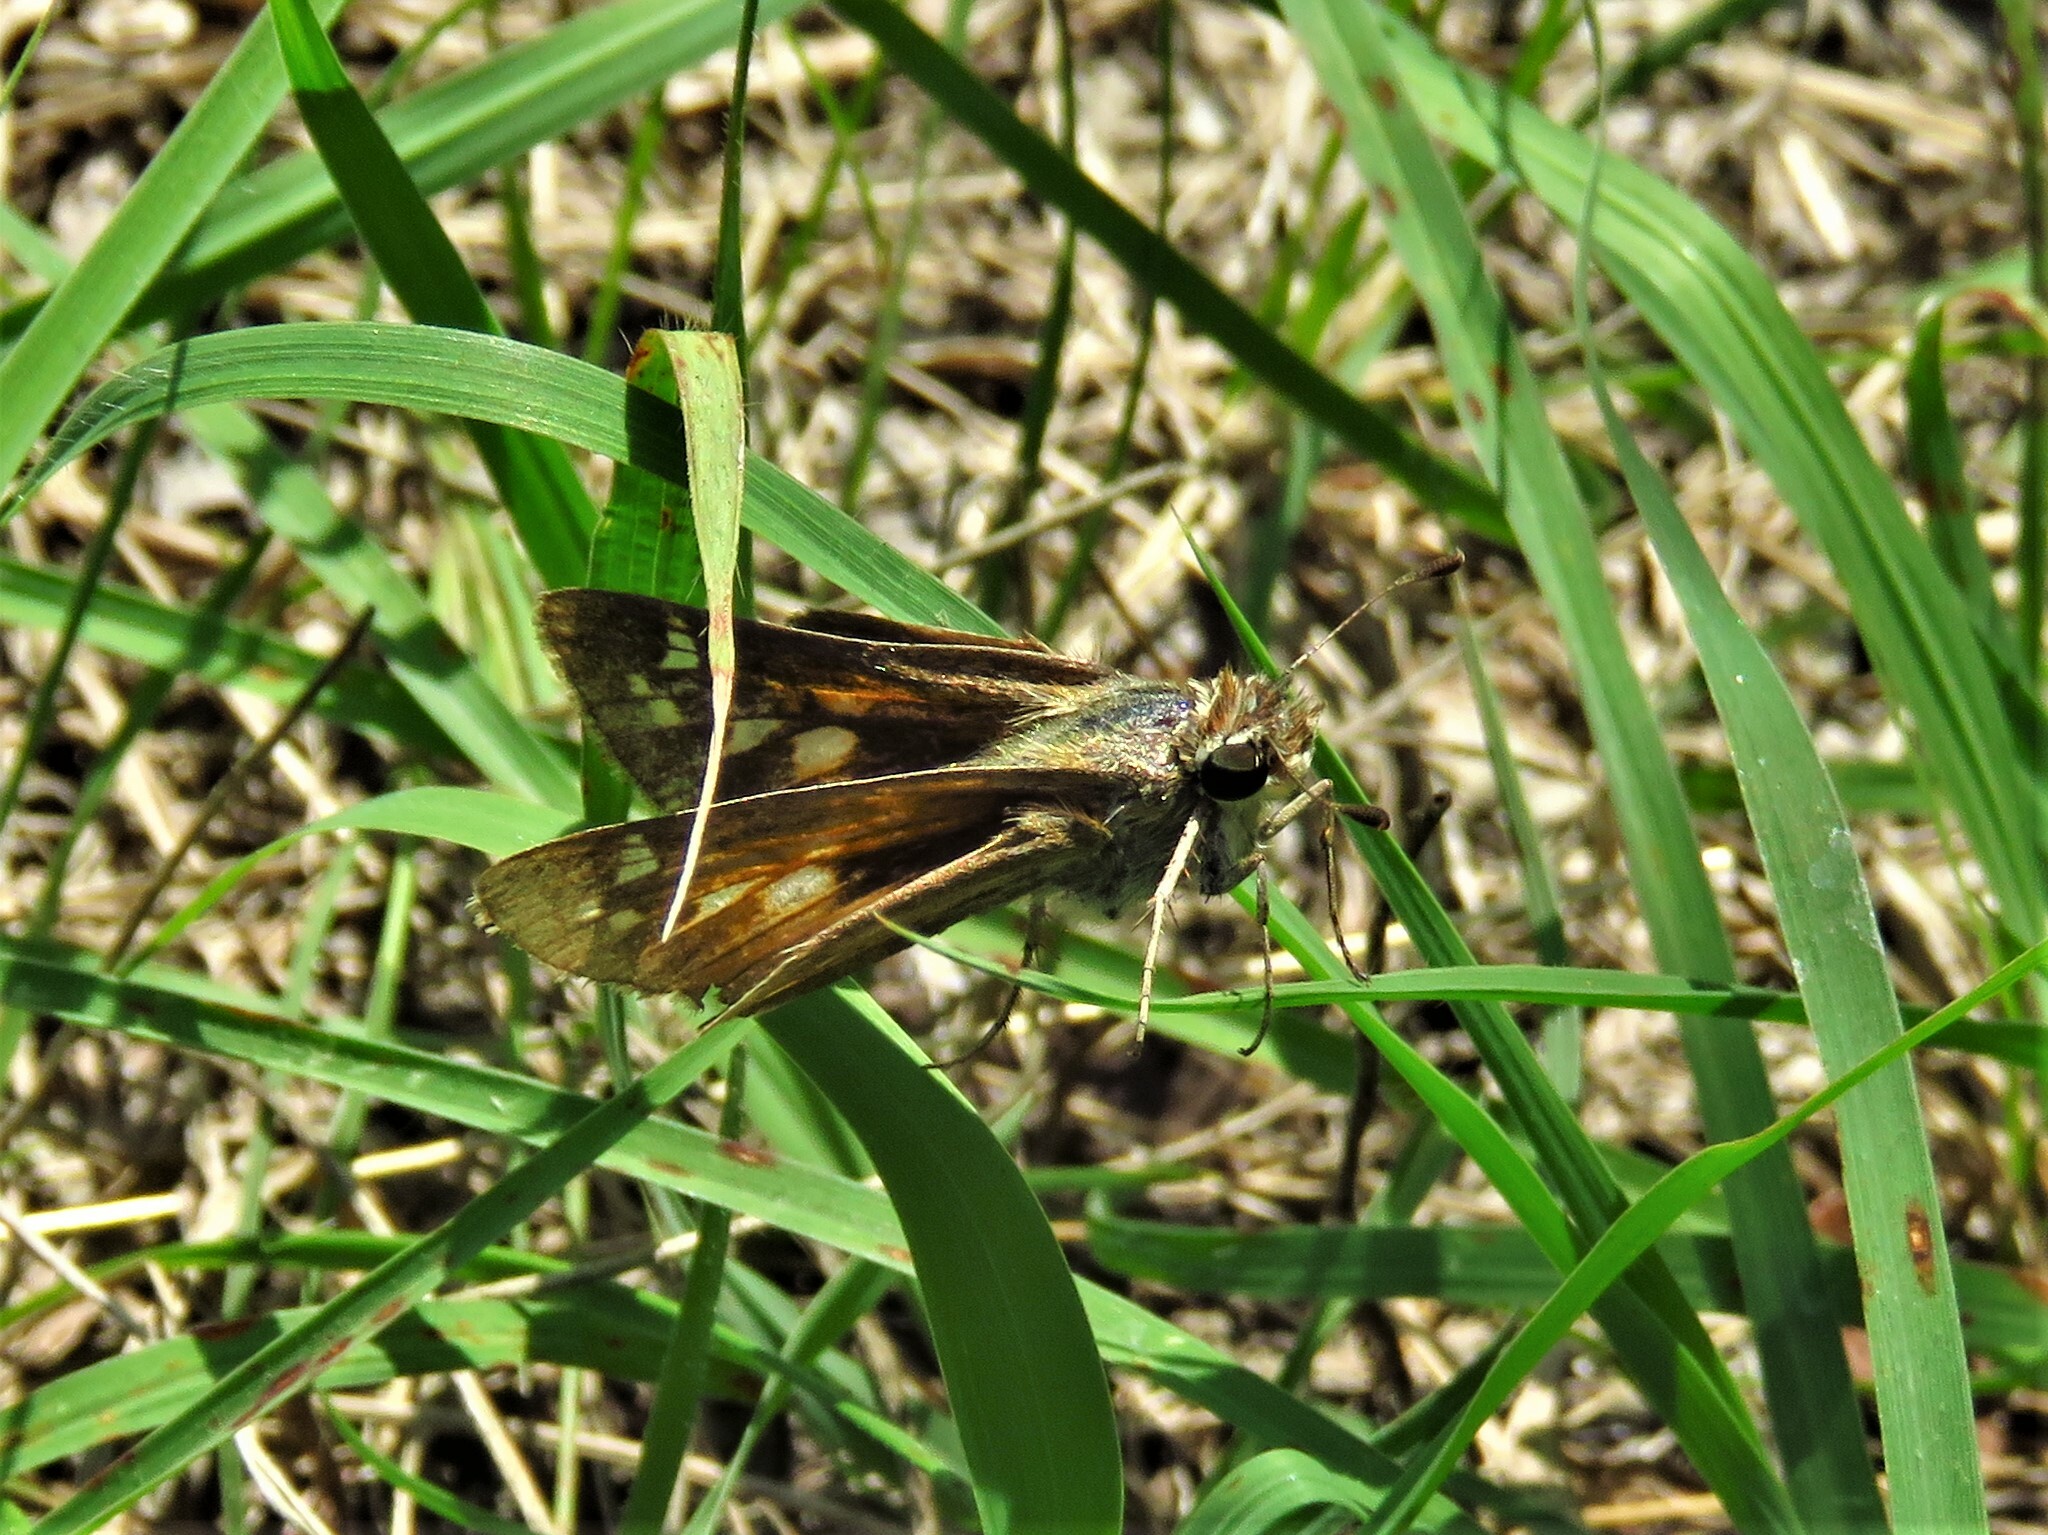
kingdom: Animalia
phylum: Arthropoda
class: Insecta
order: Lepidoptera
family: Hesperiidae
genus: Atalopedes
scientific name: Atalopedes
